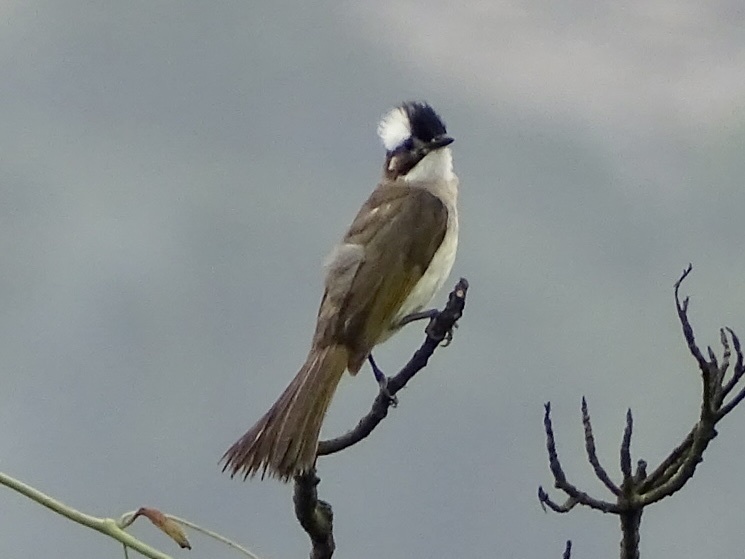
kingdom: Animalia
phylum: Chordata
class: Aves
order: Passeriformes
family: Pycnonotidae
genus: Pycnonotus
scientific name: Pycnonotus sinensis
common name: Light-vented bulbul
